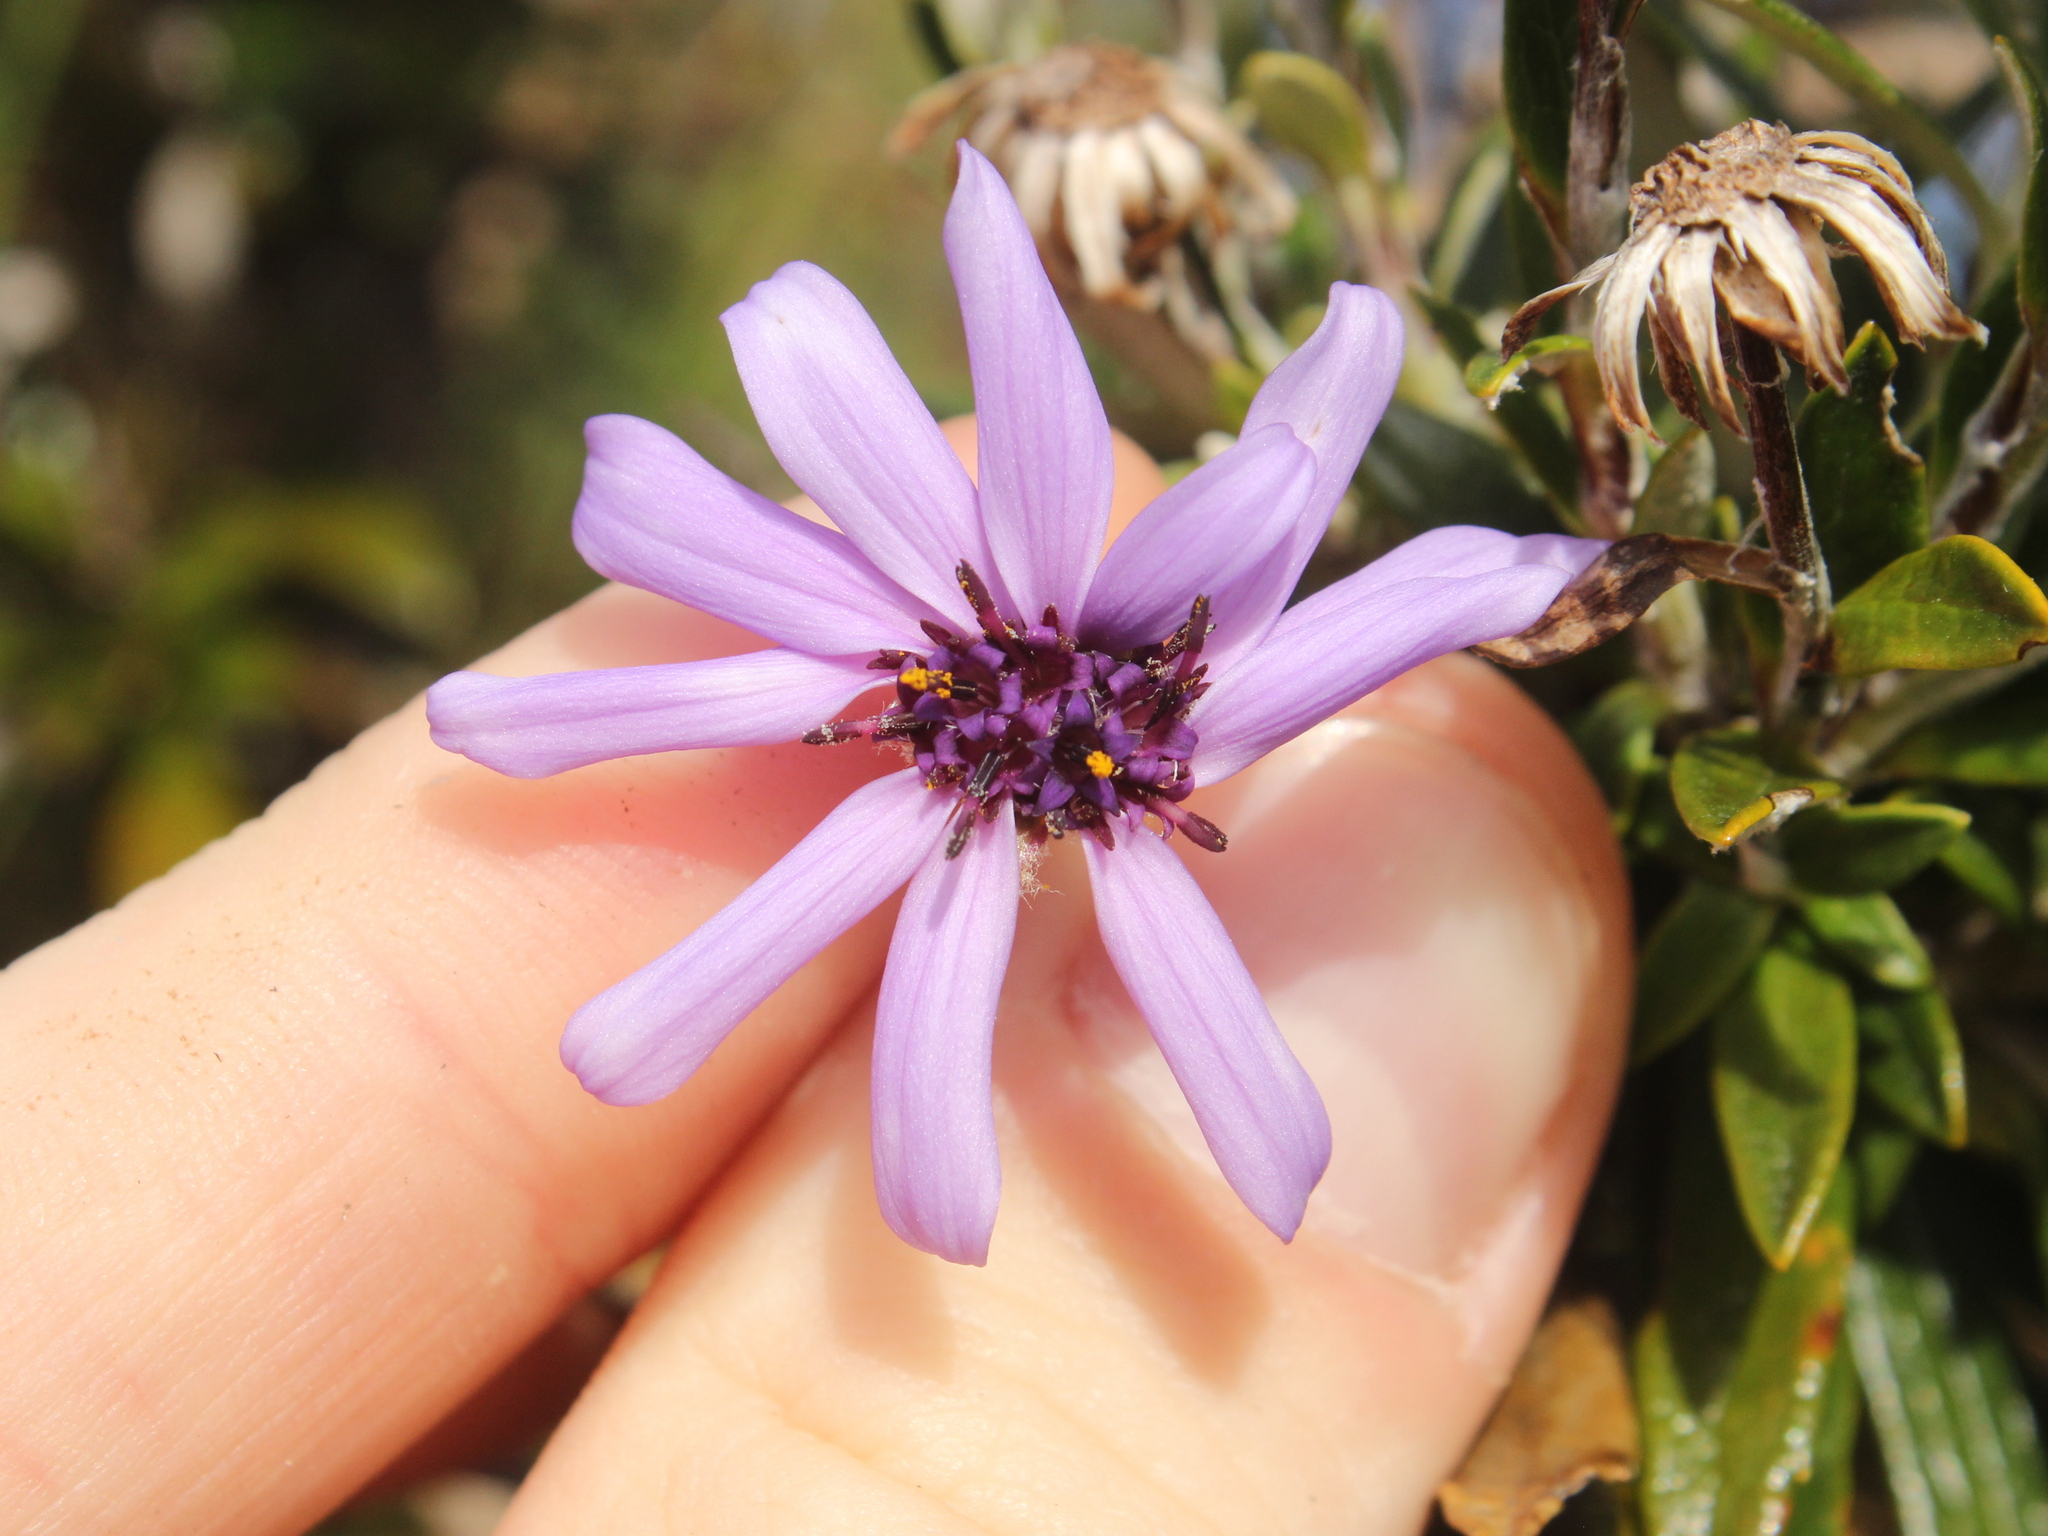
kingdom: Plantae
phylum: Tracheophyta
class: Magnoliopsida
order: Asterales
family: Asteraceae
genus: Macrolearia
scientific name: Macrolearia semidentata
